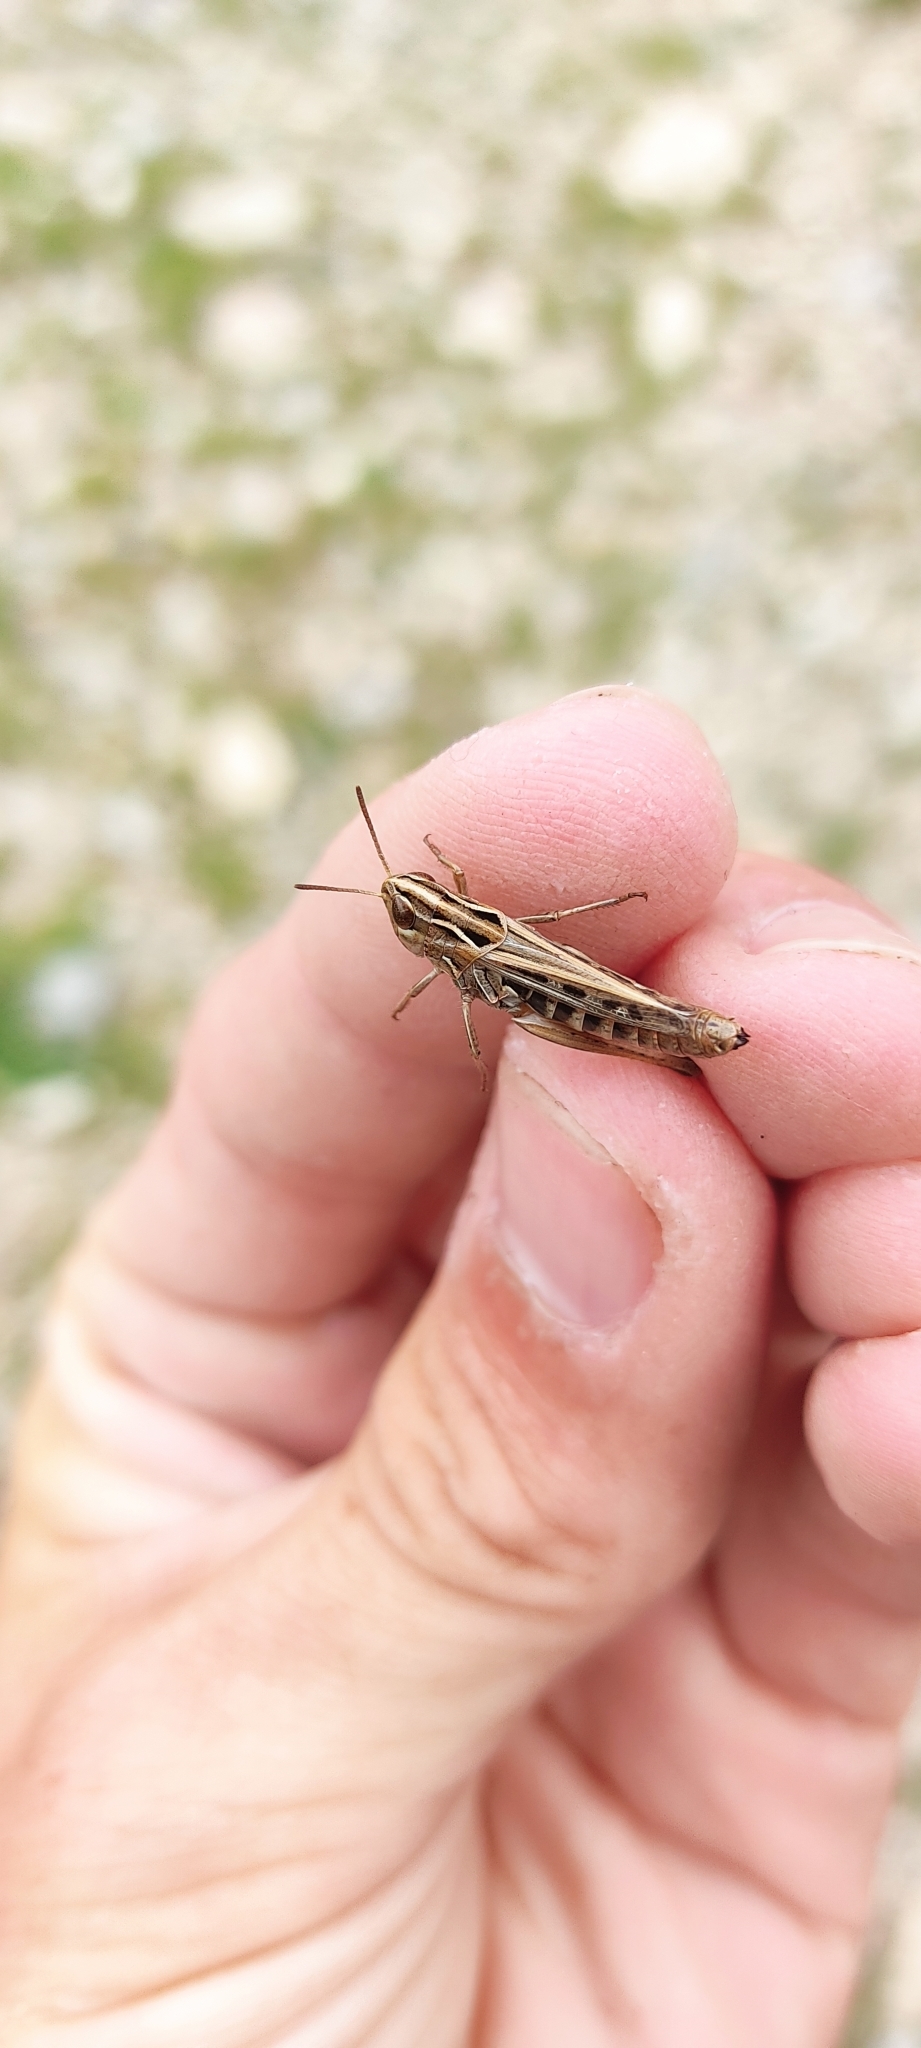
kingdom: Animalia
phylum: Arthropoda
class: Insecta
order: Orthoptera
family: Acrididae
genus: Stenobothrus
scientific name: Stenobothrus stigmaticus
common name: Lesser mottled grasshopper
